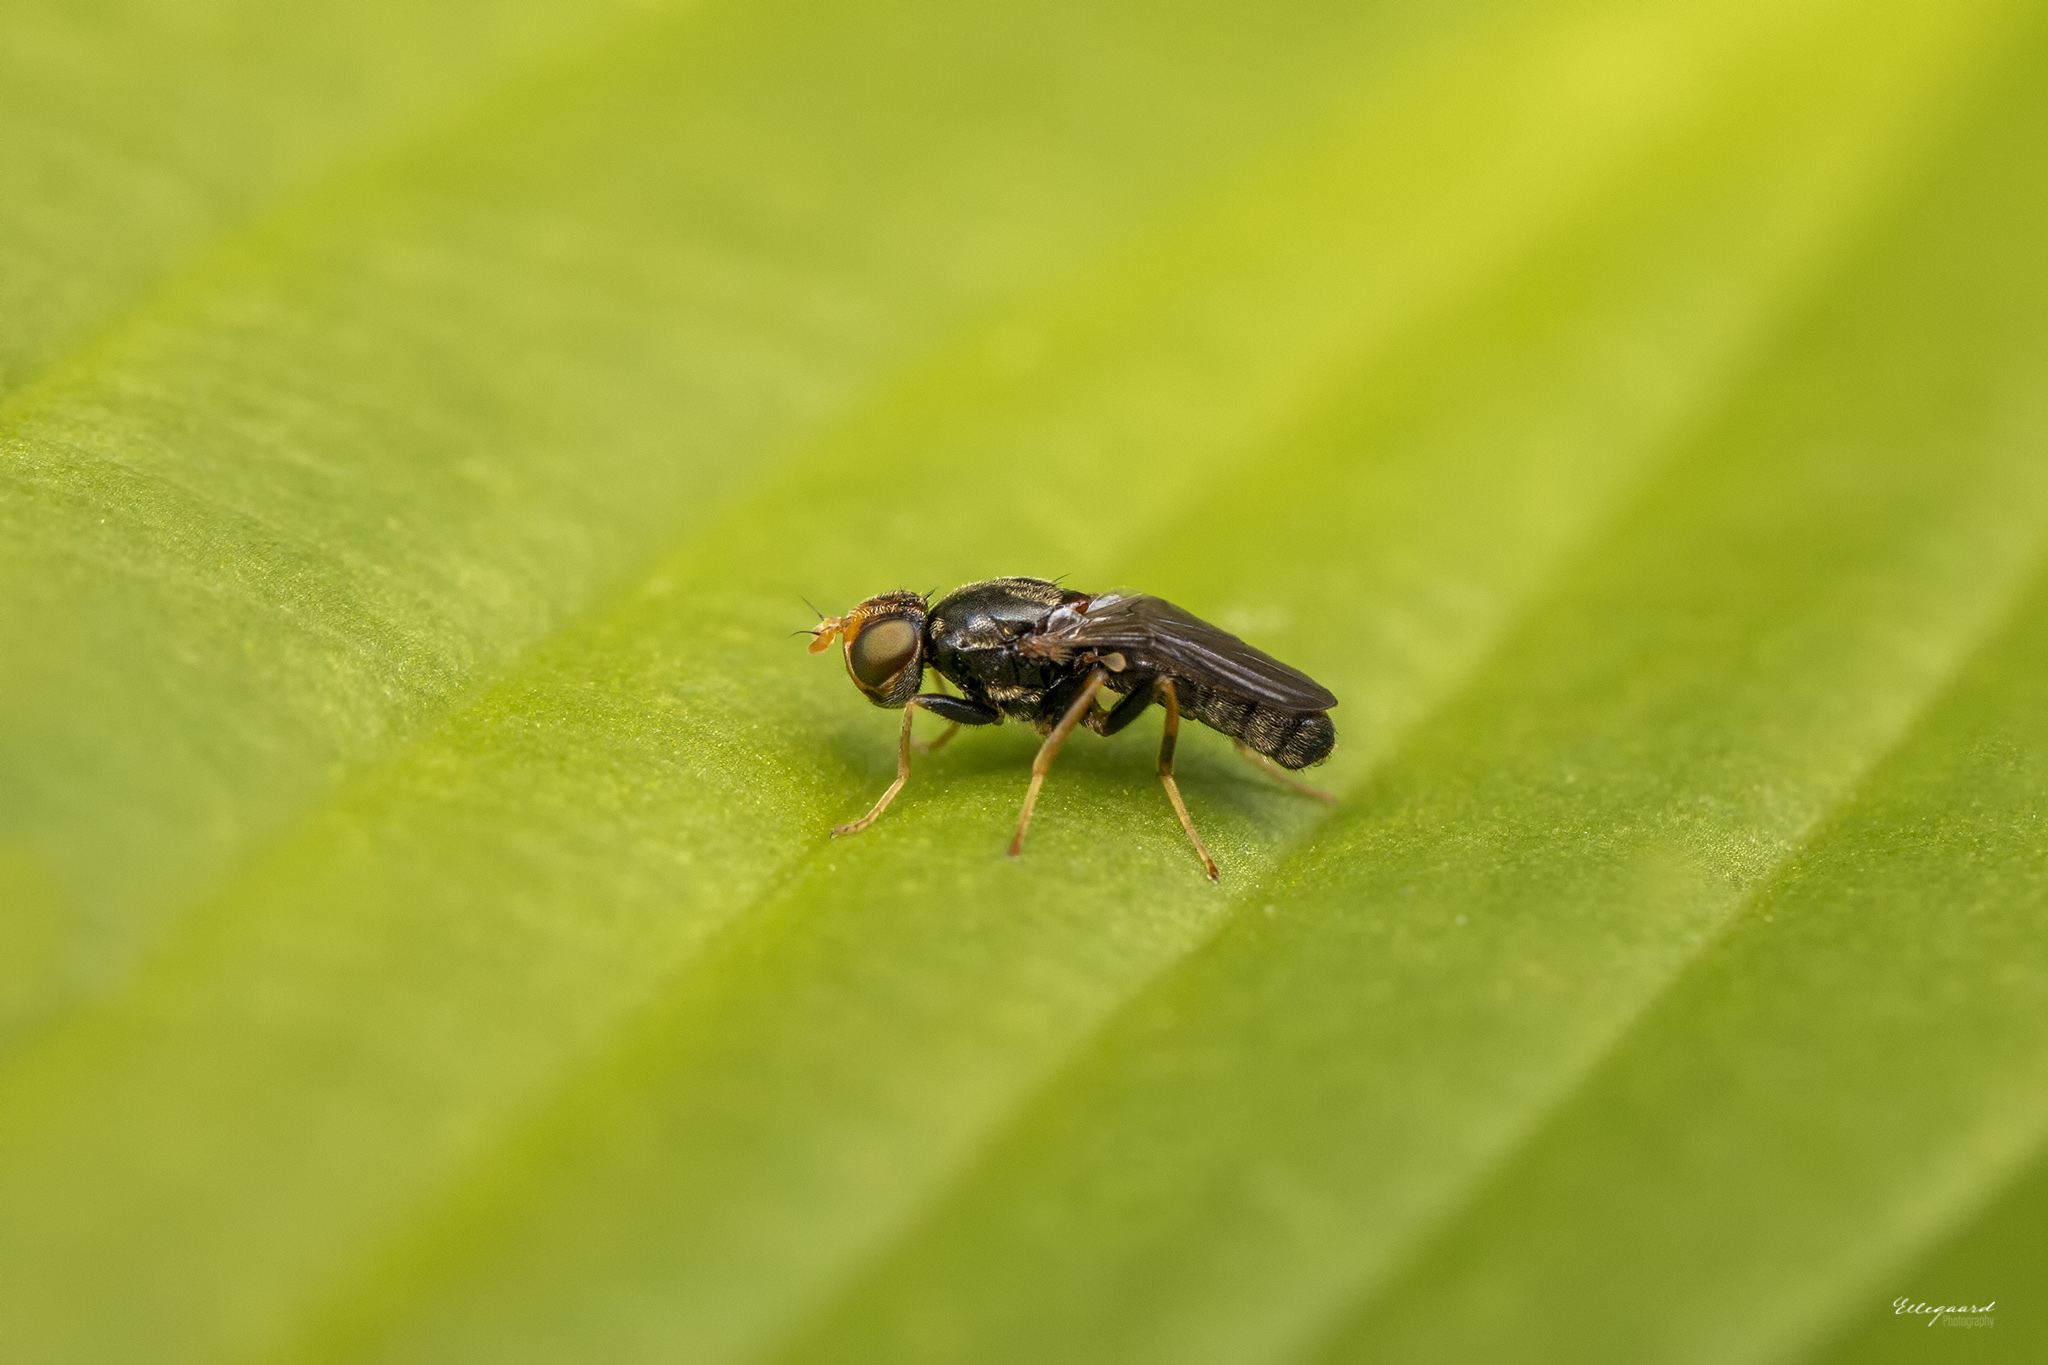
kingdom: Animalia
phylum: Arthropoda
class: Insecta
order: Diptera
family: Psilidae
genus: Chyliza
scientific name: Chyliza leguminicola
